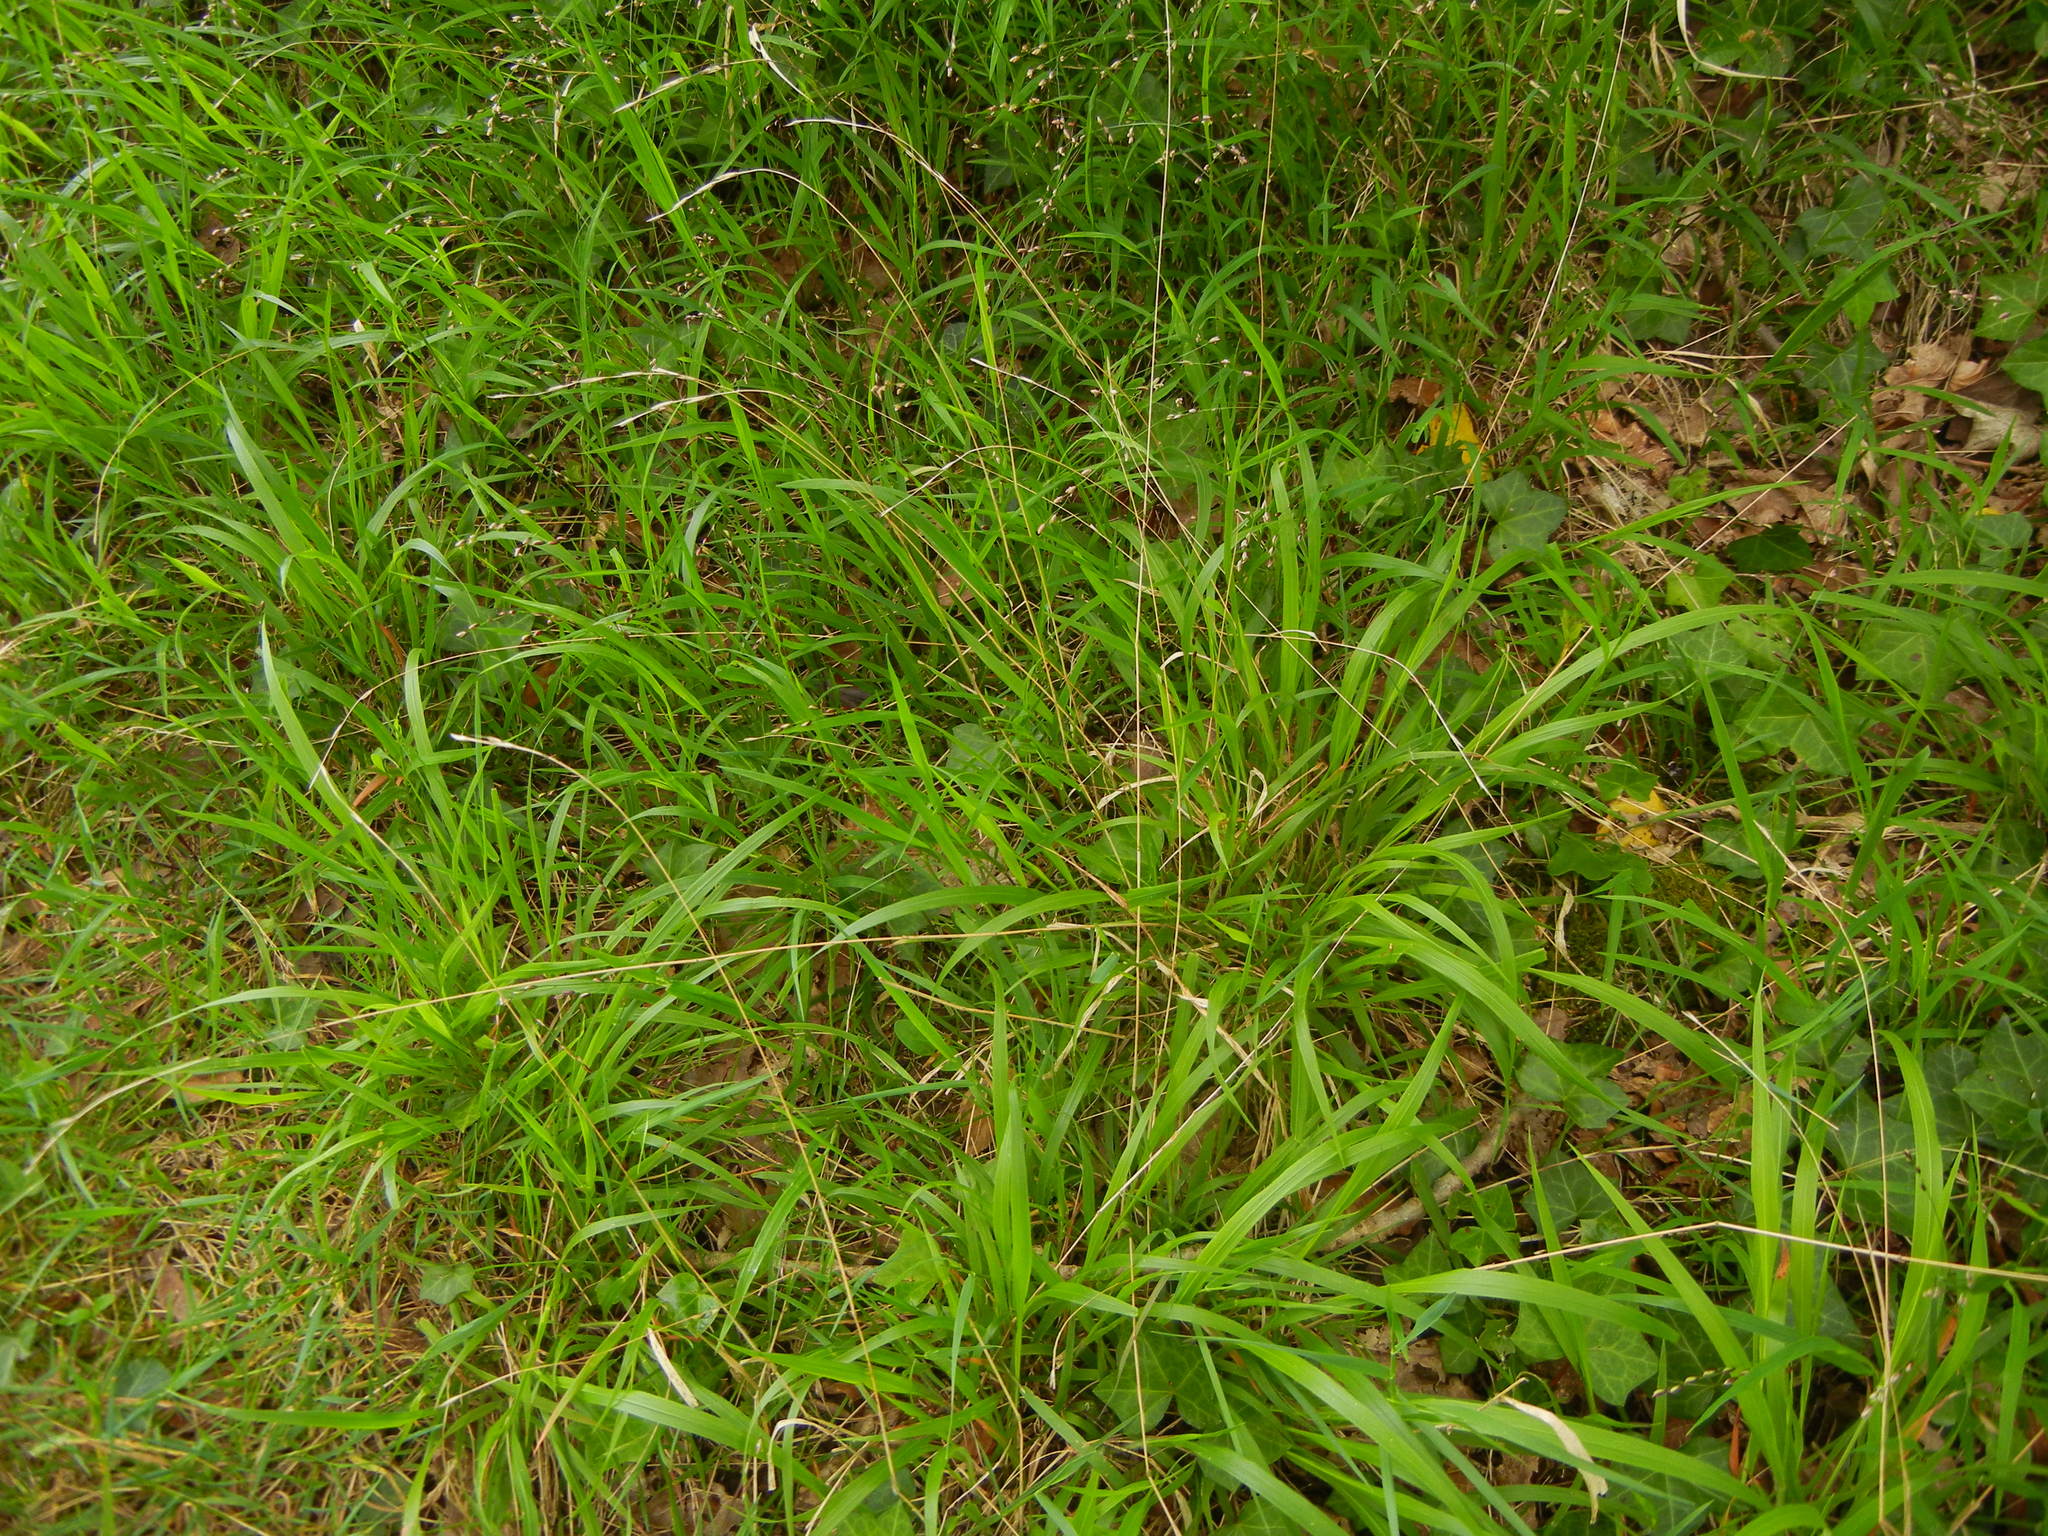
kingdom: Plantae
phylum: Tracheophyta
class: Liliopsida
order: Poales
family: Poaceae
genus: Brachypodium
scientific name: Brachypodium sylvaticum
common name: False-brome
